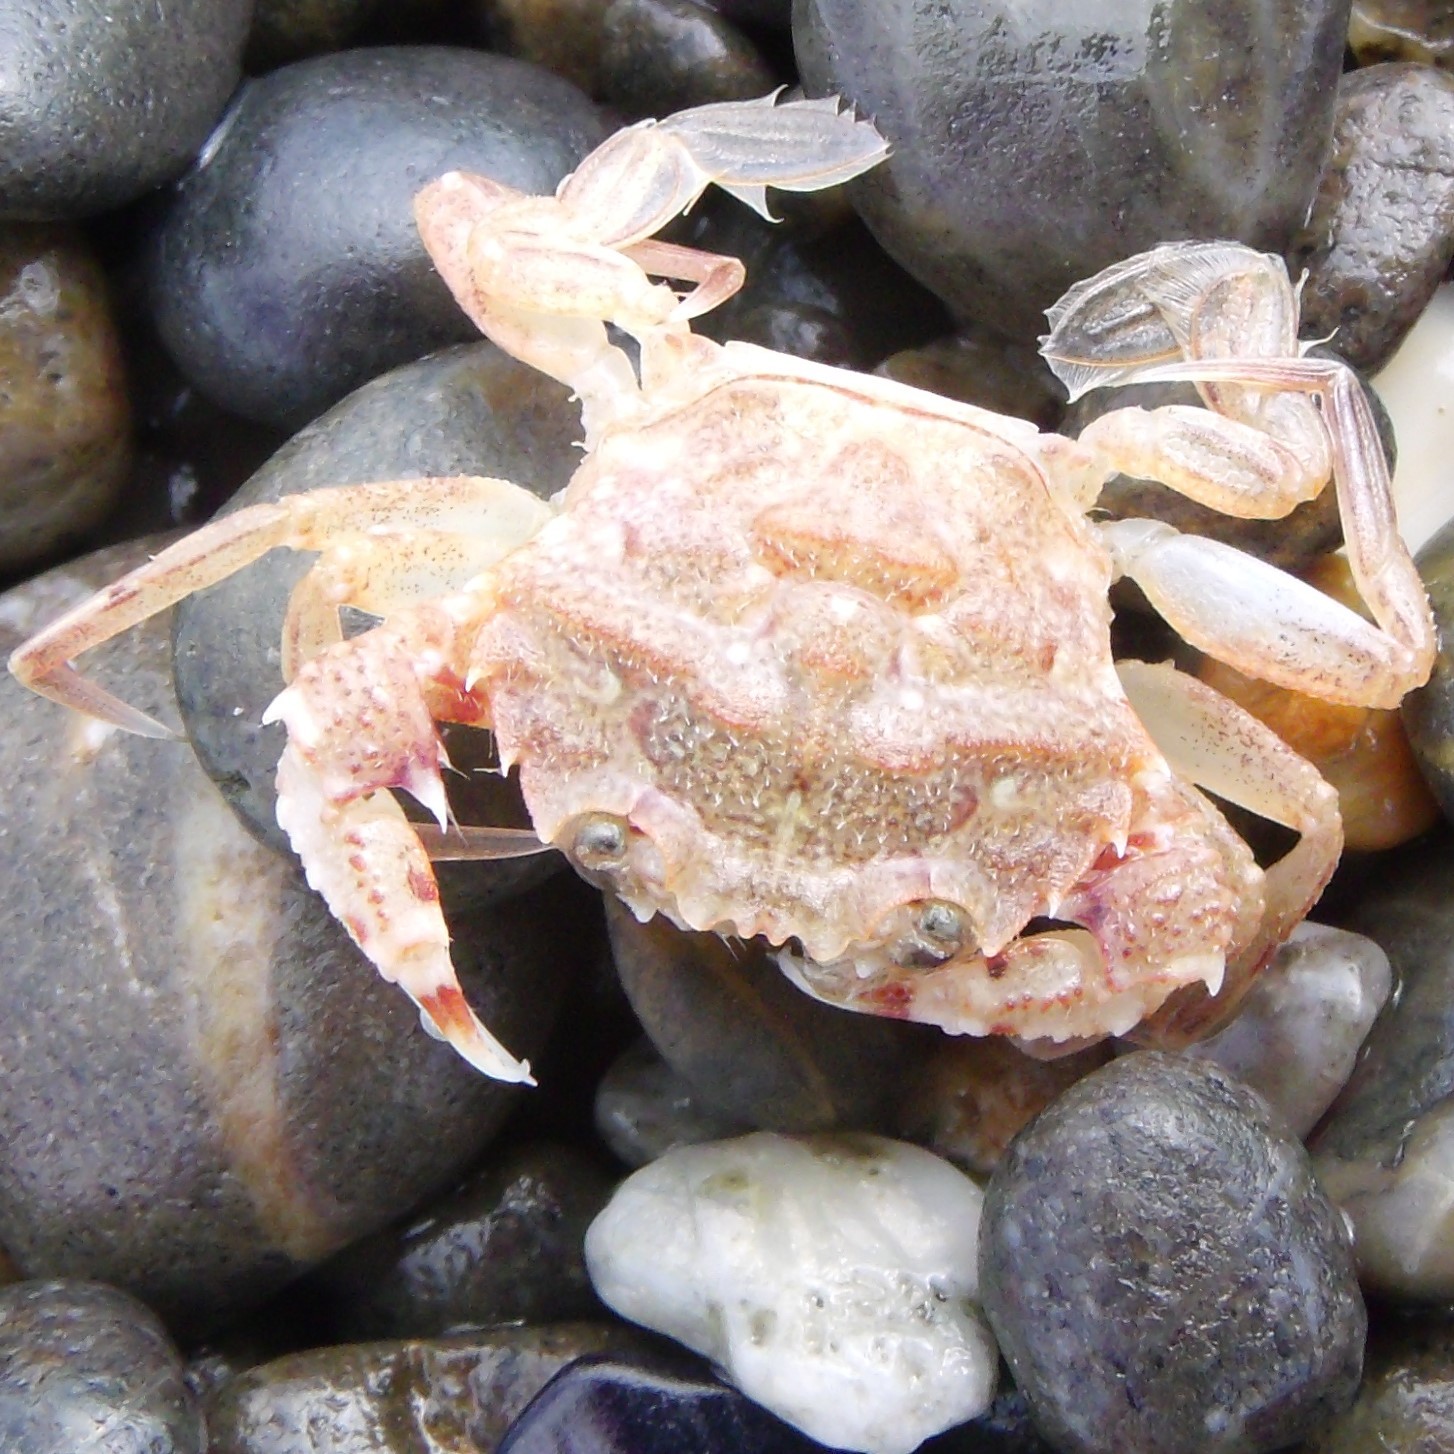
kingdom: Animalia
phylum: Arthropoda
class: Malacostraca
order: Decapoda
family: Geryonidae
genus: Nectocarcinus
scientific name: Nectocarcinus antarcticus
